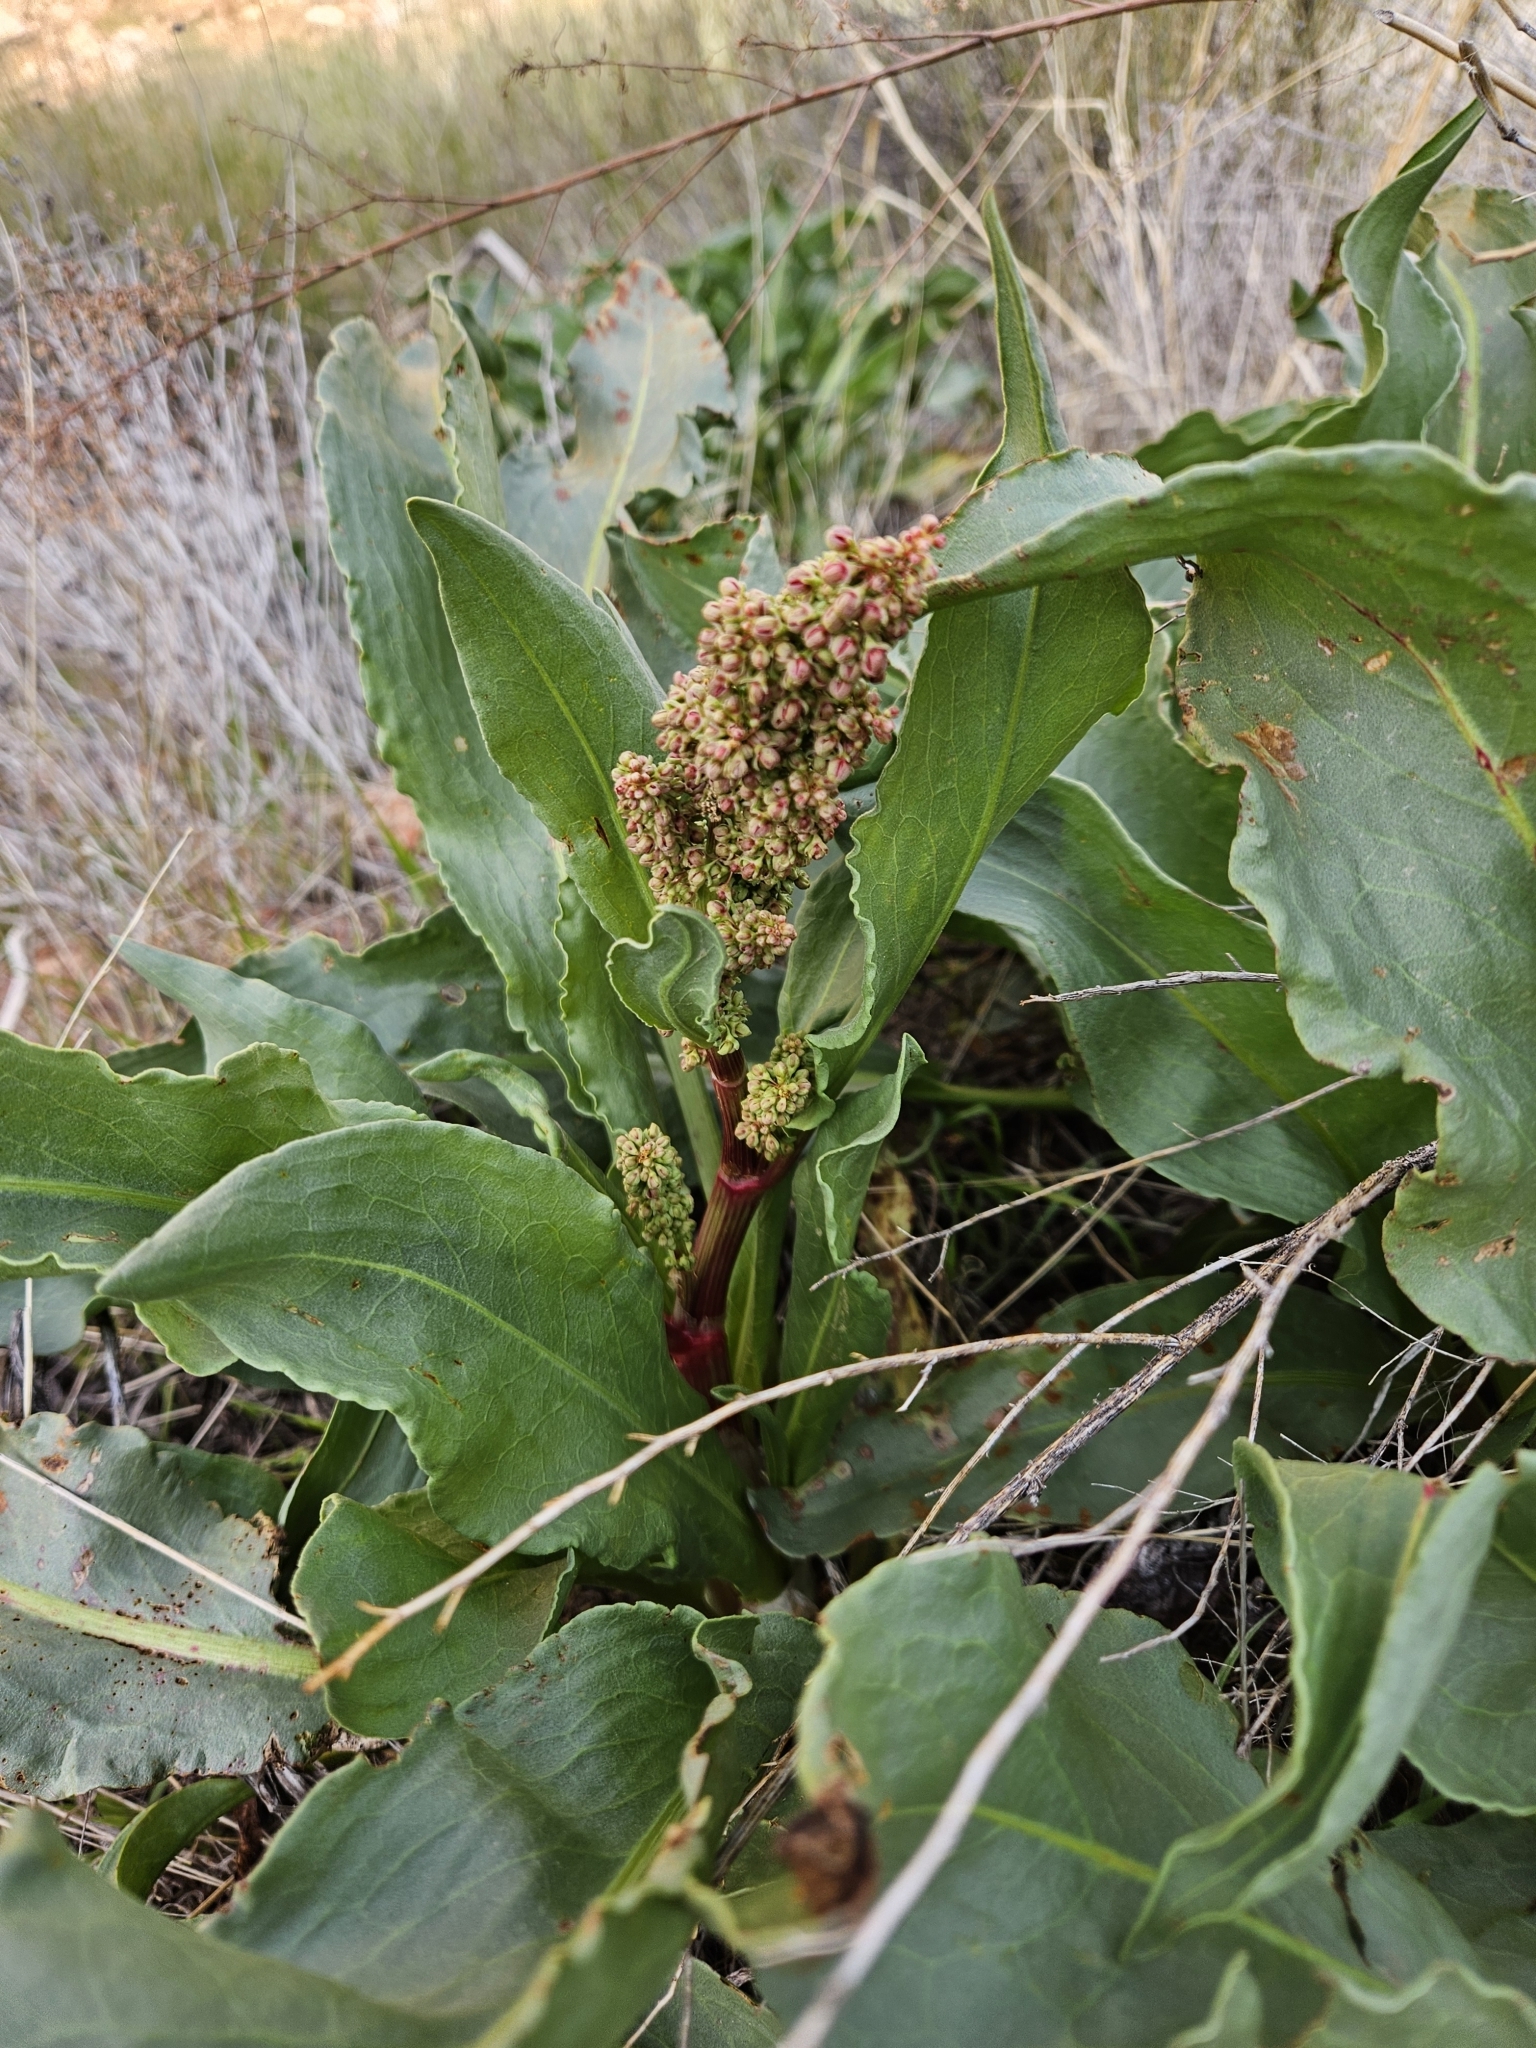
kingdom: Plantae
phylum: Tracheophyta
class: Magnoliopsida
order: Caryophyllales
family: Polygonaceae
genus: Rumex
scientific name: Rumex hymenosepalus
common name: Ganagra
